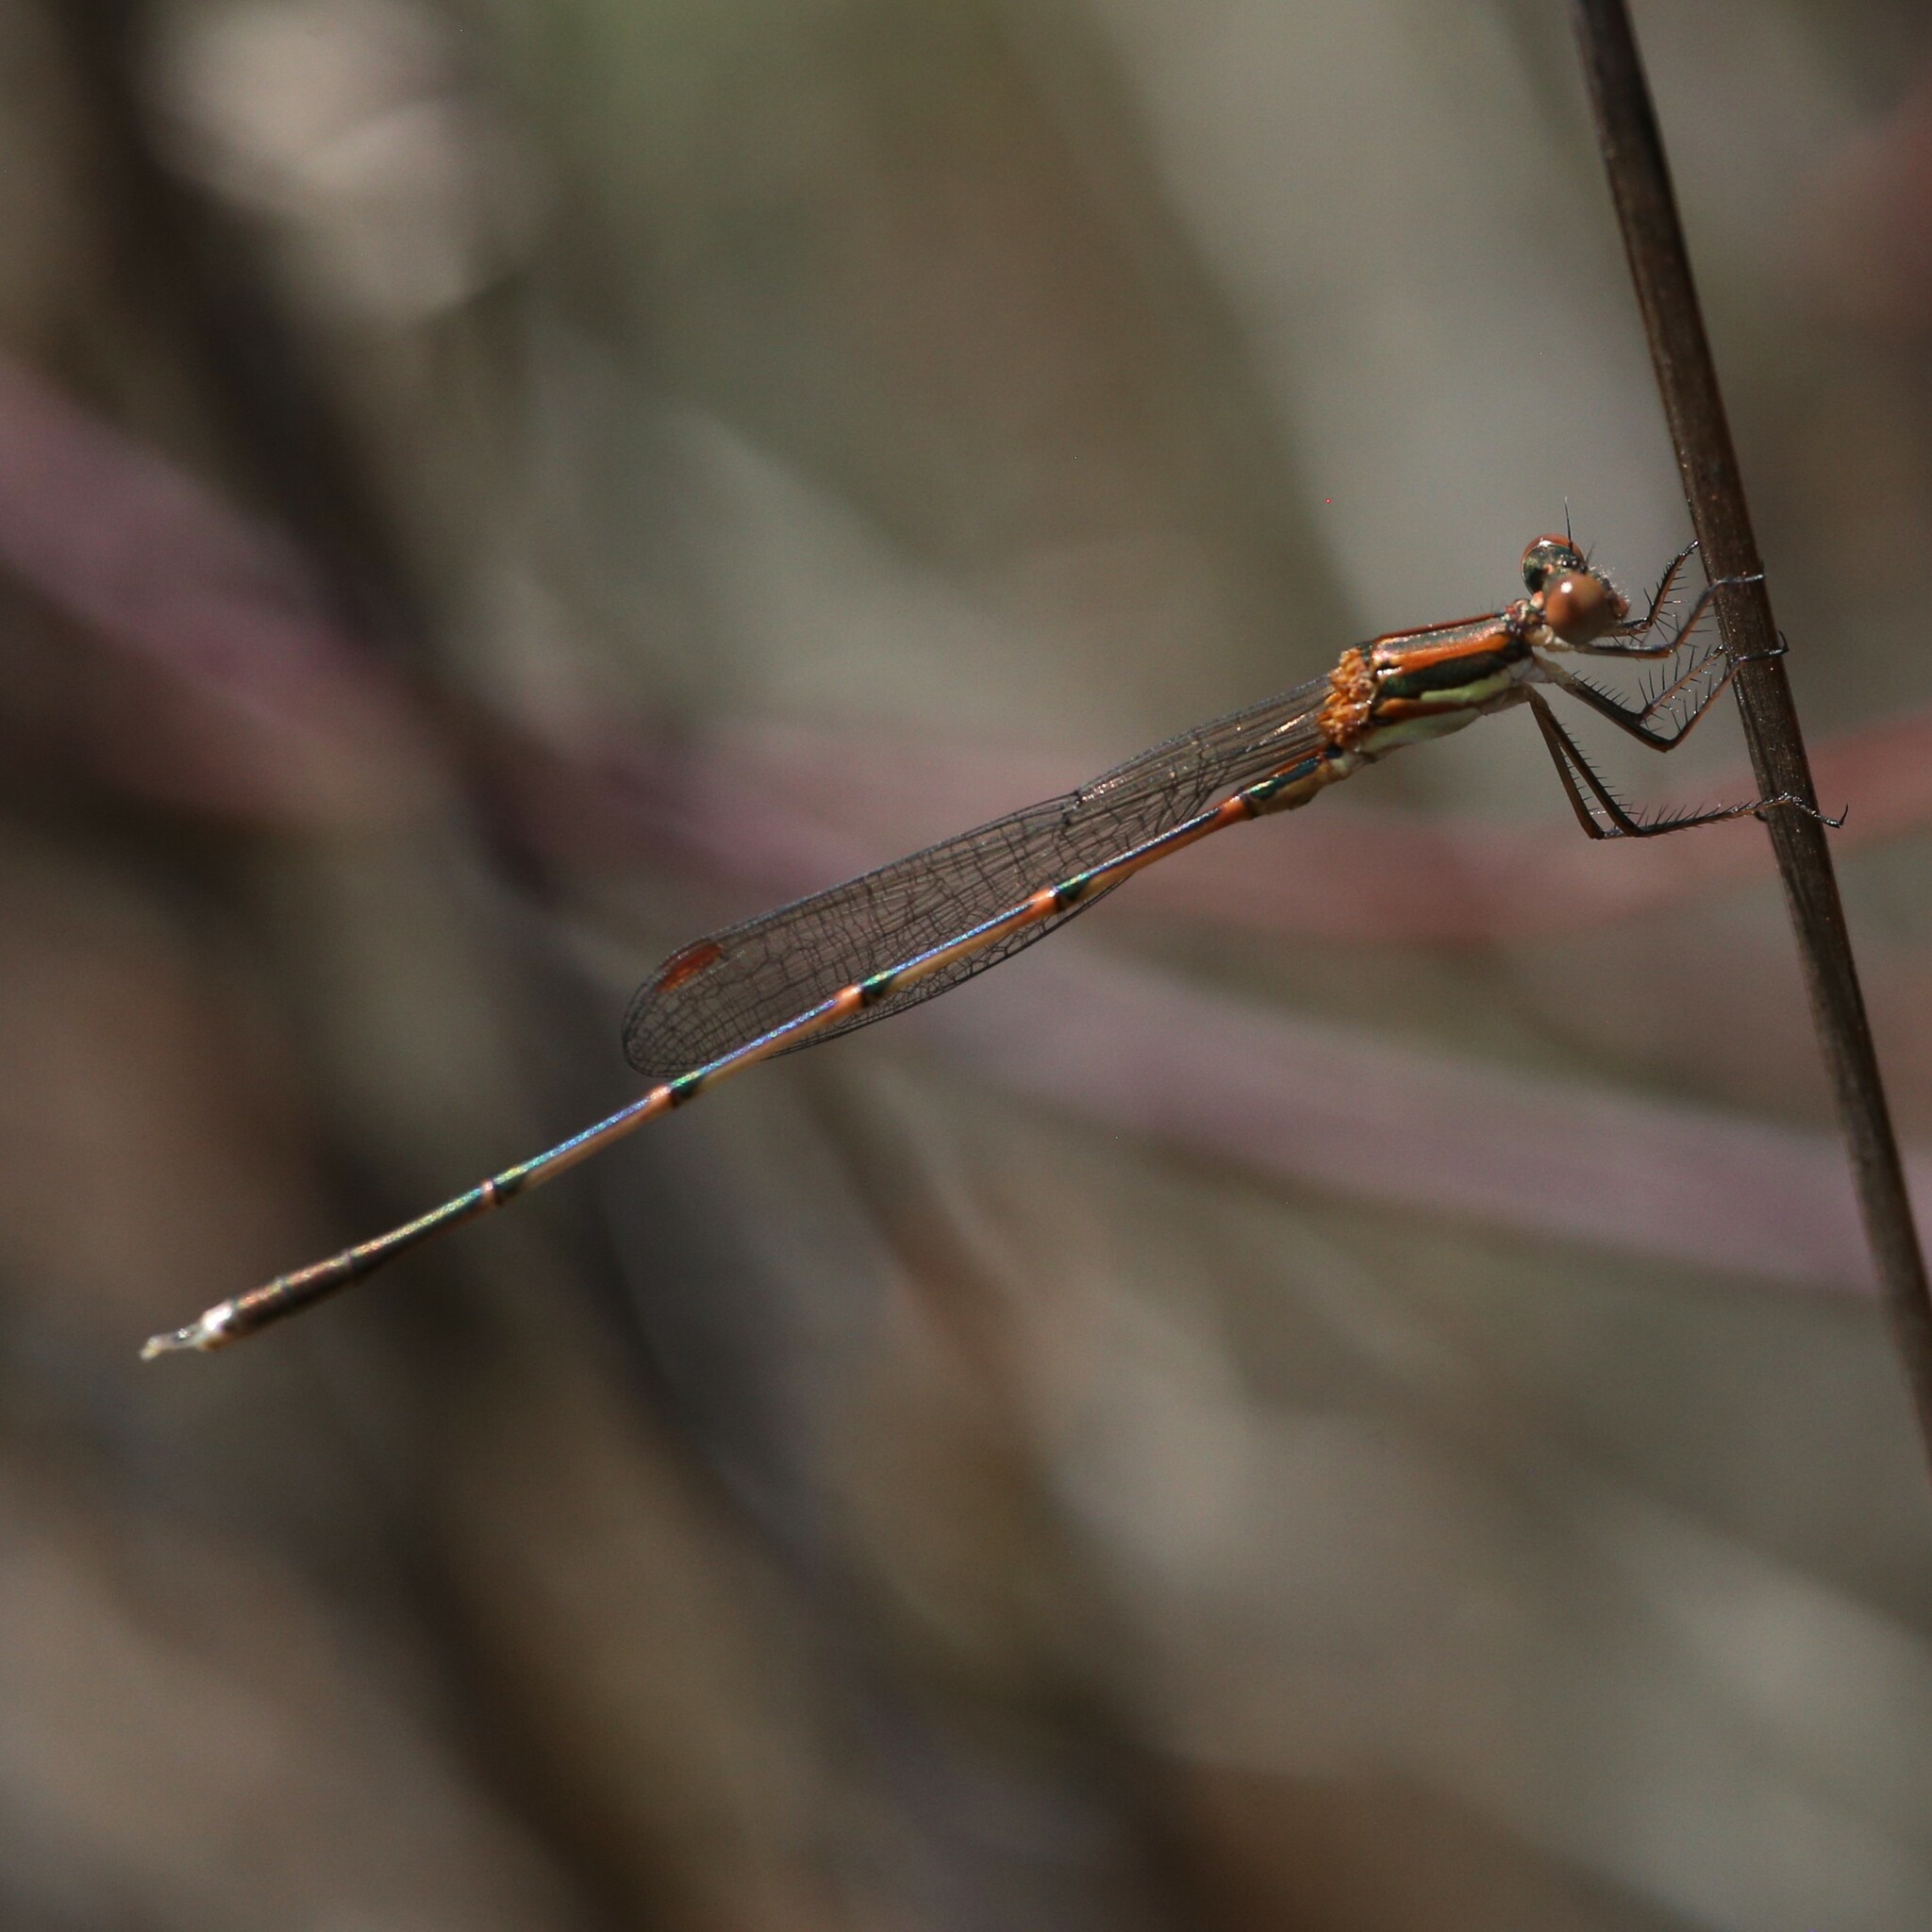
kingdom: Animalia
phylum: Arthropoda
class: Insecta
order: Odonata
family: Lestidae
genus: Austrolestes
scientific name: Austrolestes analis
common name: Slender ringtail
